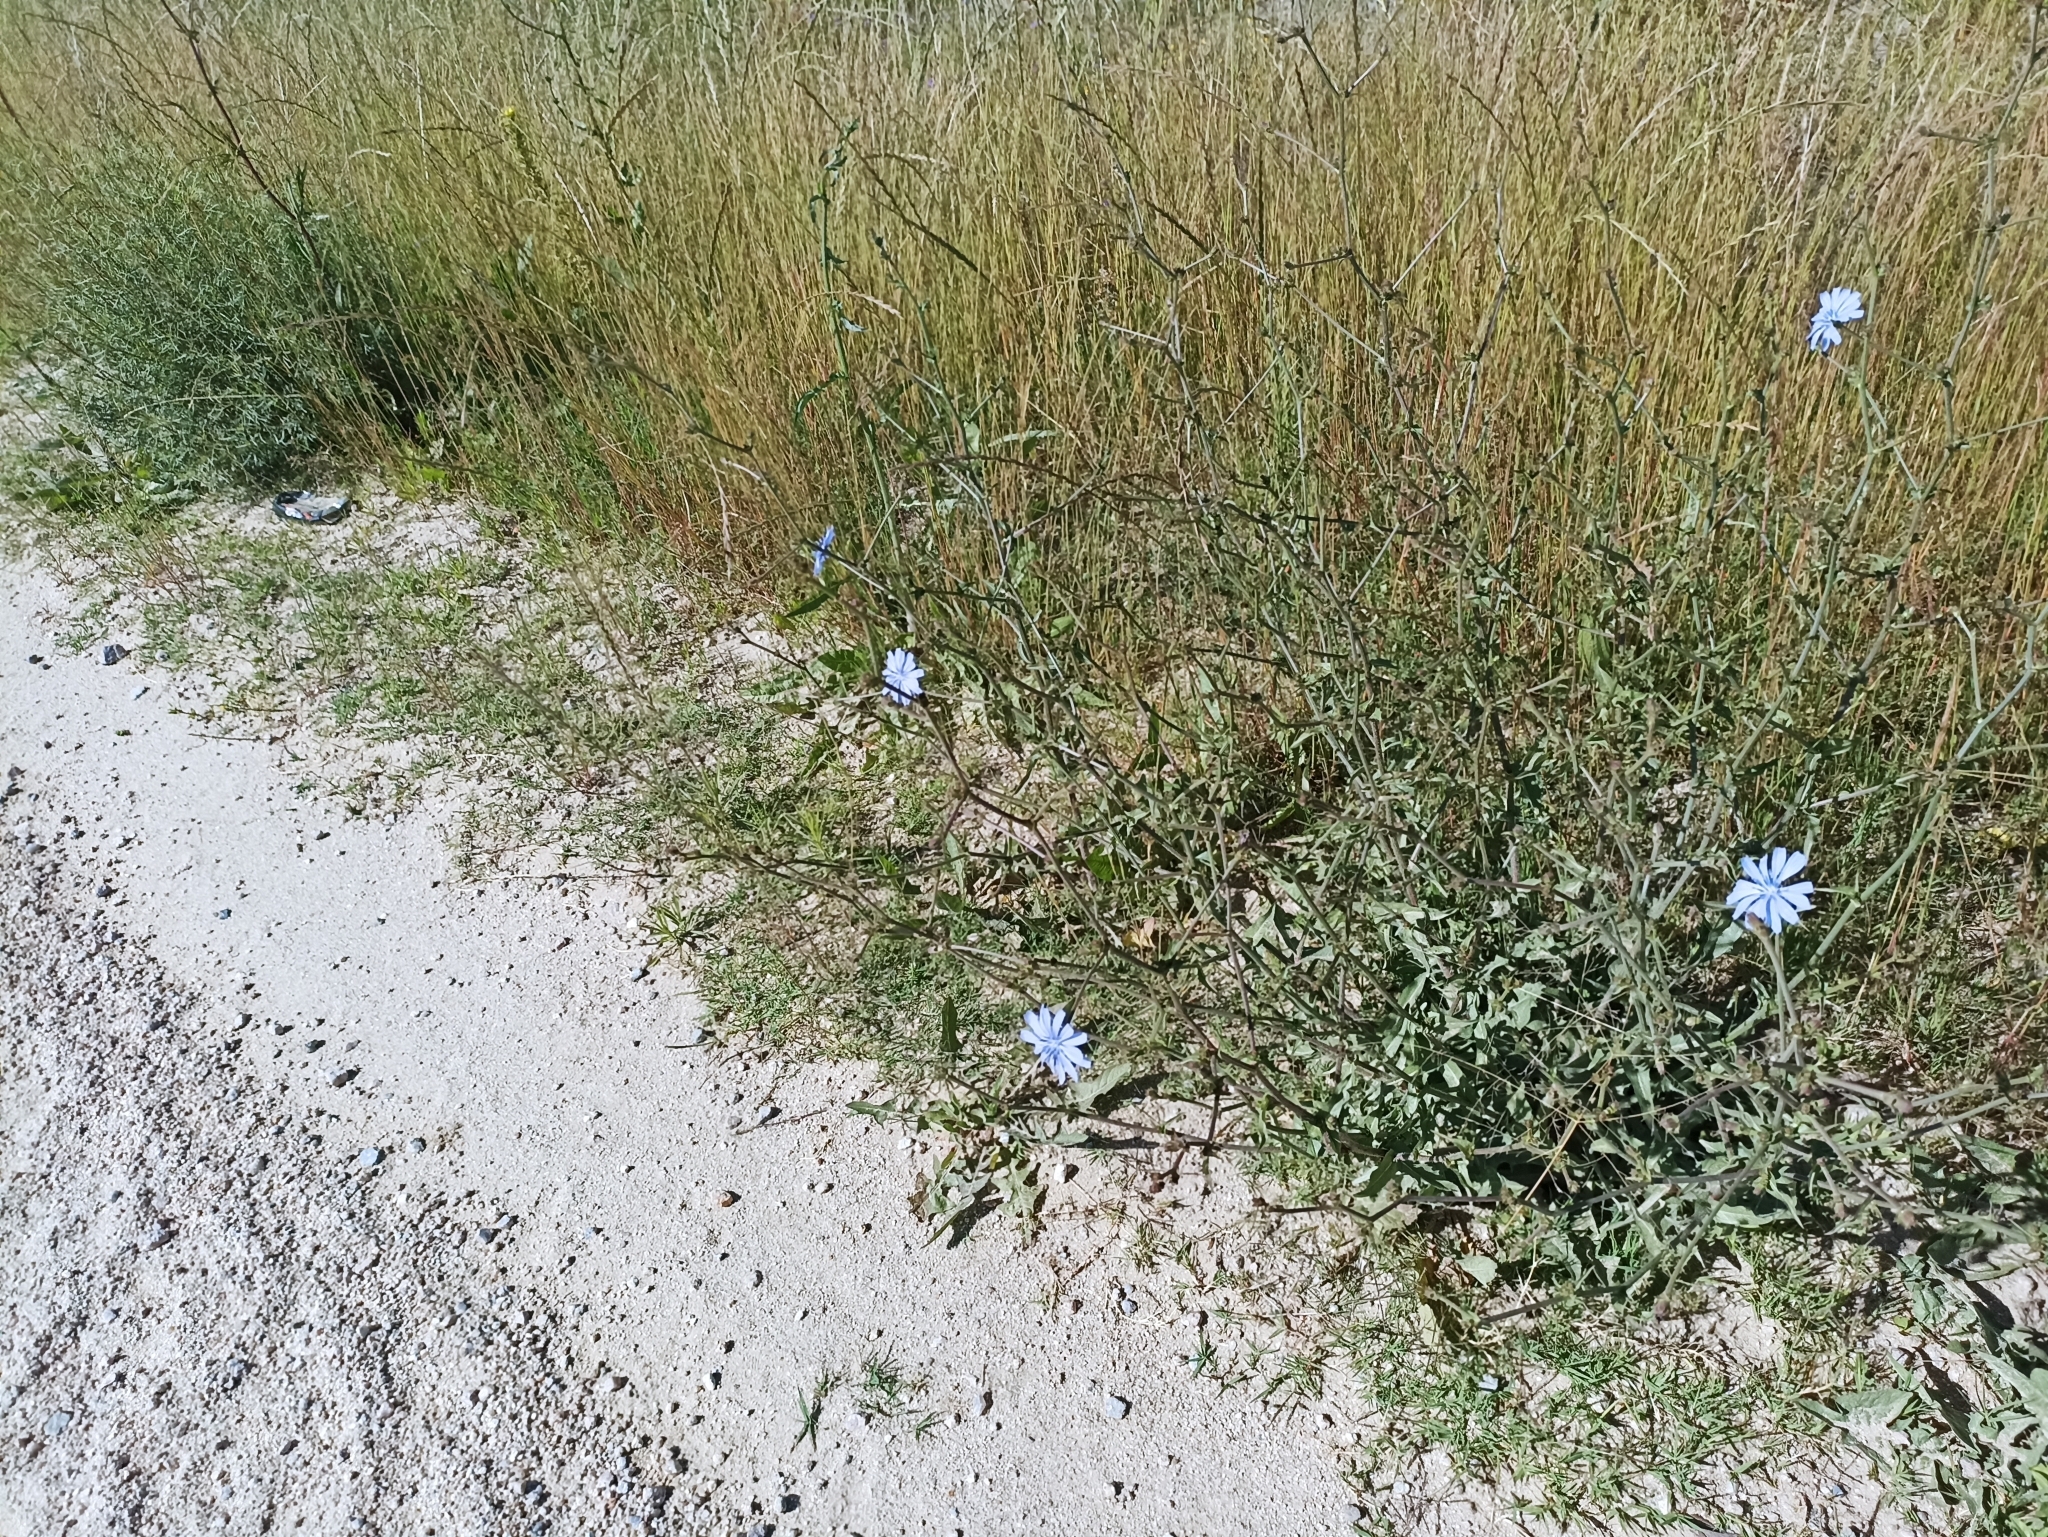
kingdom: Plantae
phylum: Tracheophyta
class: Magnoliopsida
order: Asterales
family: Asteraceae
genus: Cichorium
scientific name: Cichorium intybus
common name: Chicory
